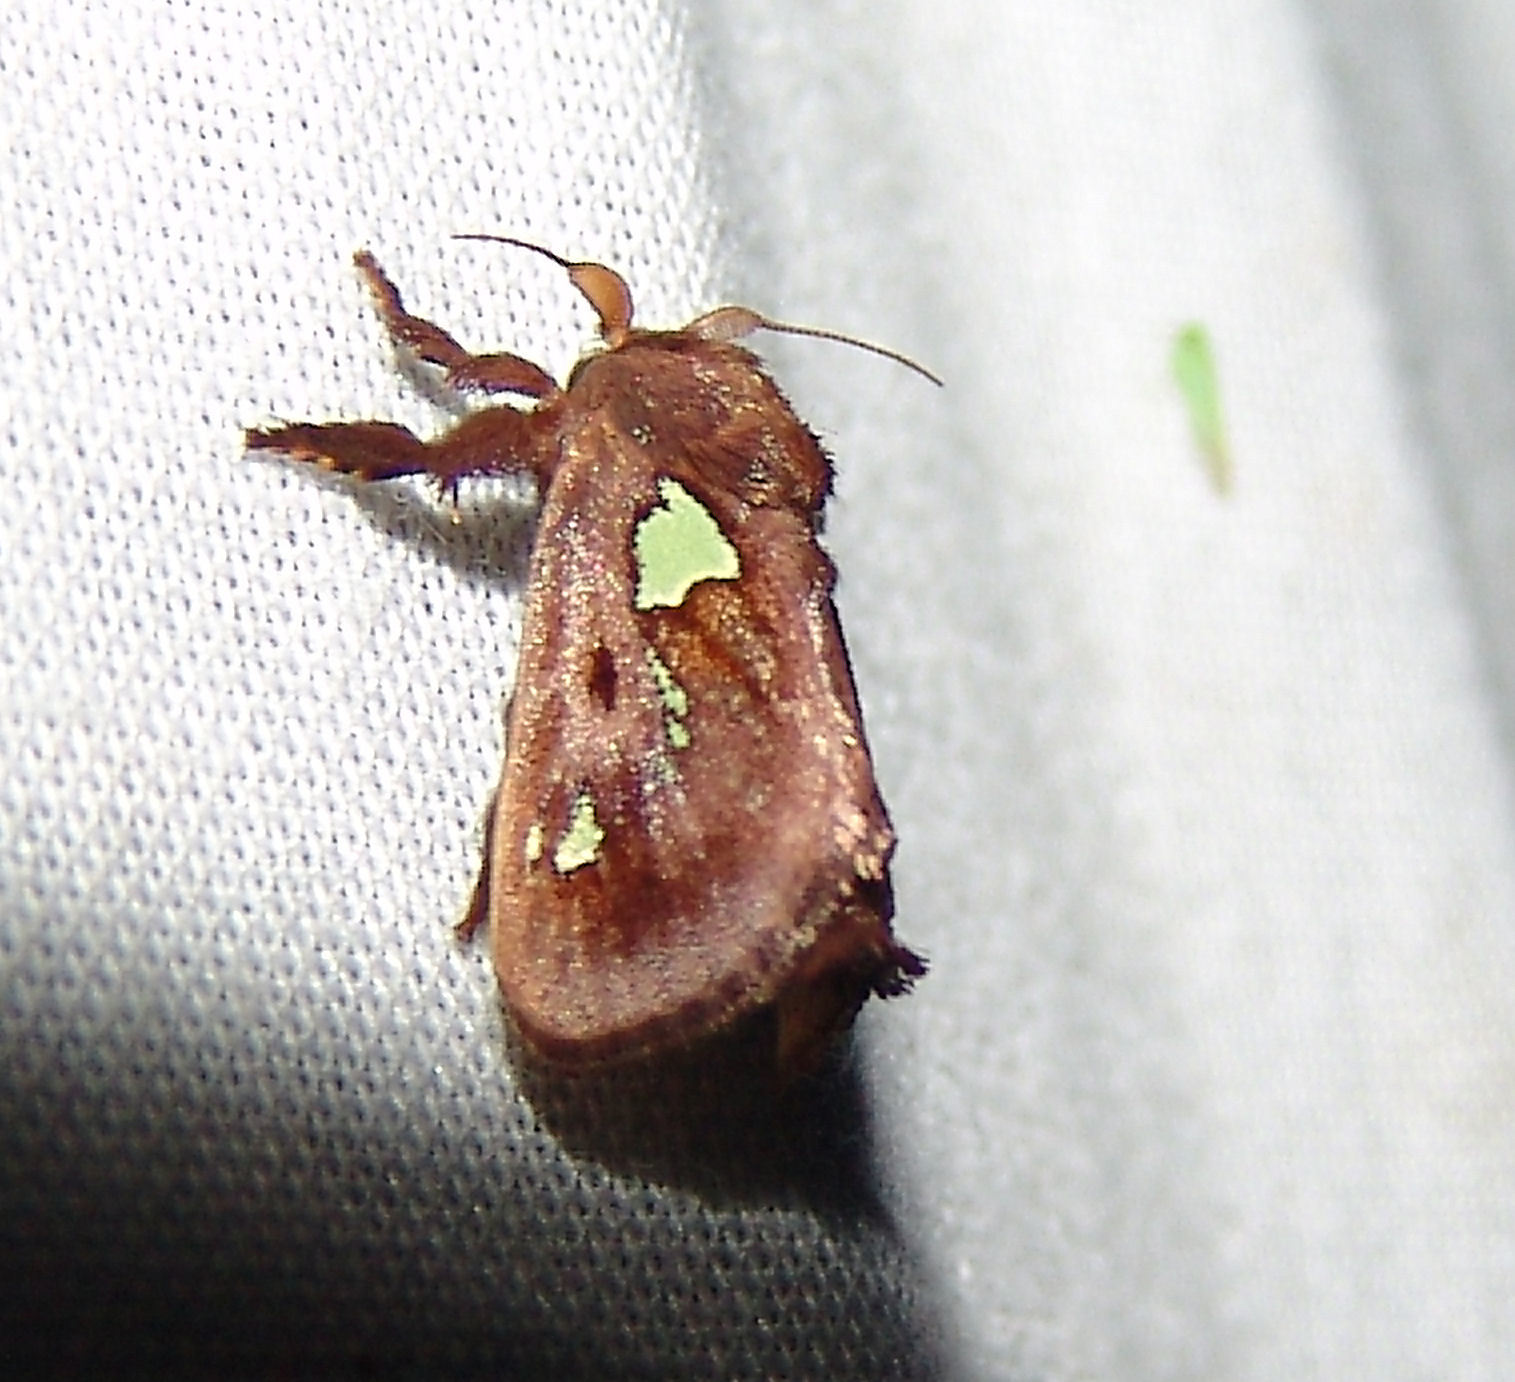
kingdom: Animalia
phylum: Arthropoda
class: Insecta
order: Lepidoptera
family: Limacodidae
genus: Euclea
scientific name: Euclea delphinii
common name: Spiny oak-slug moth
